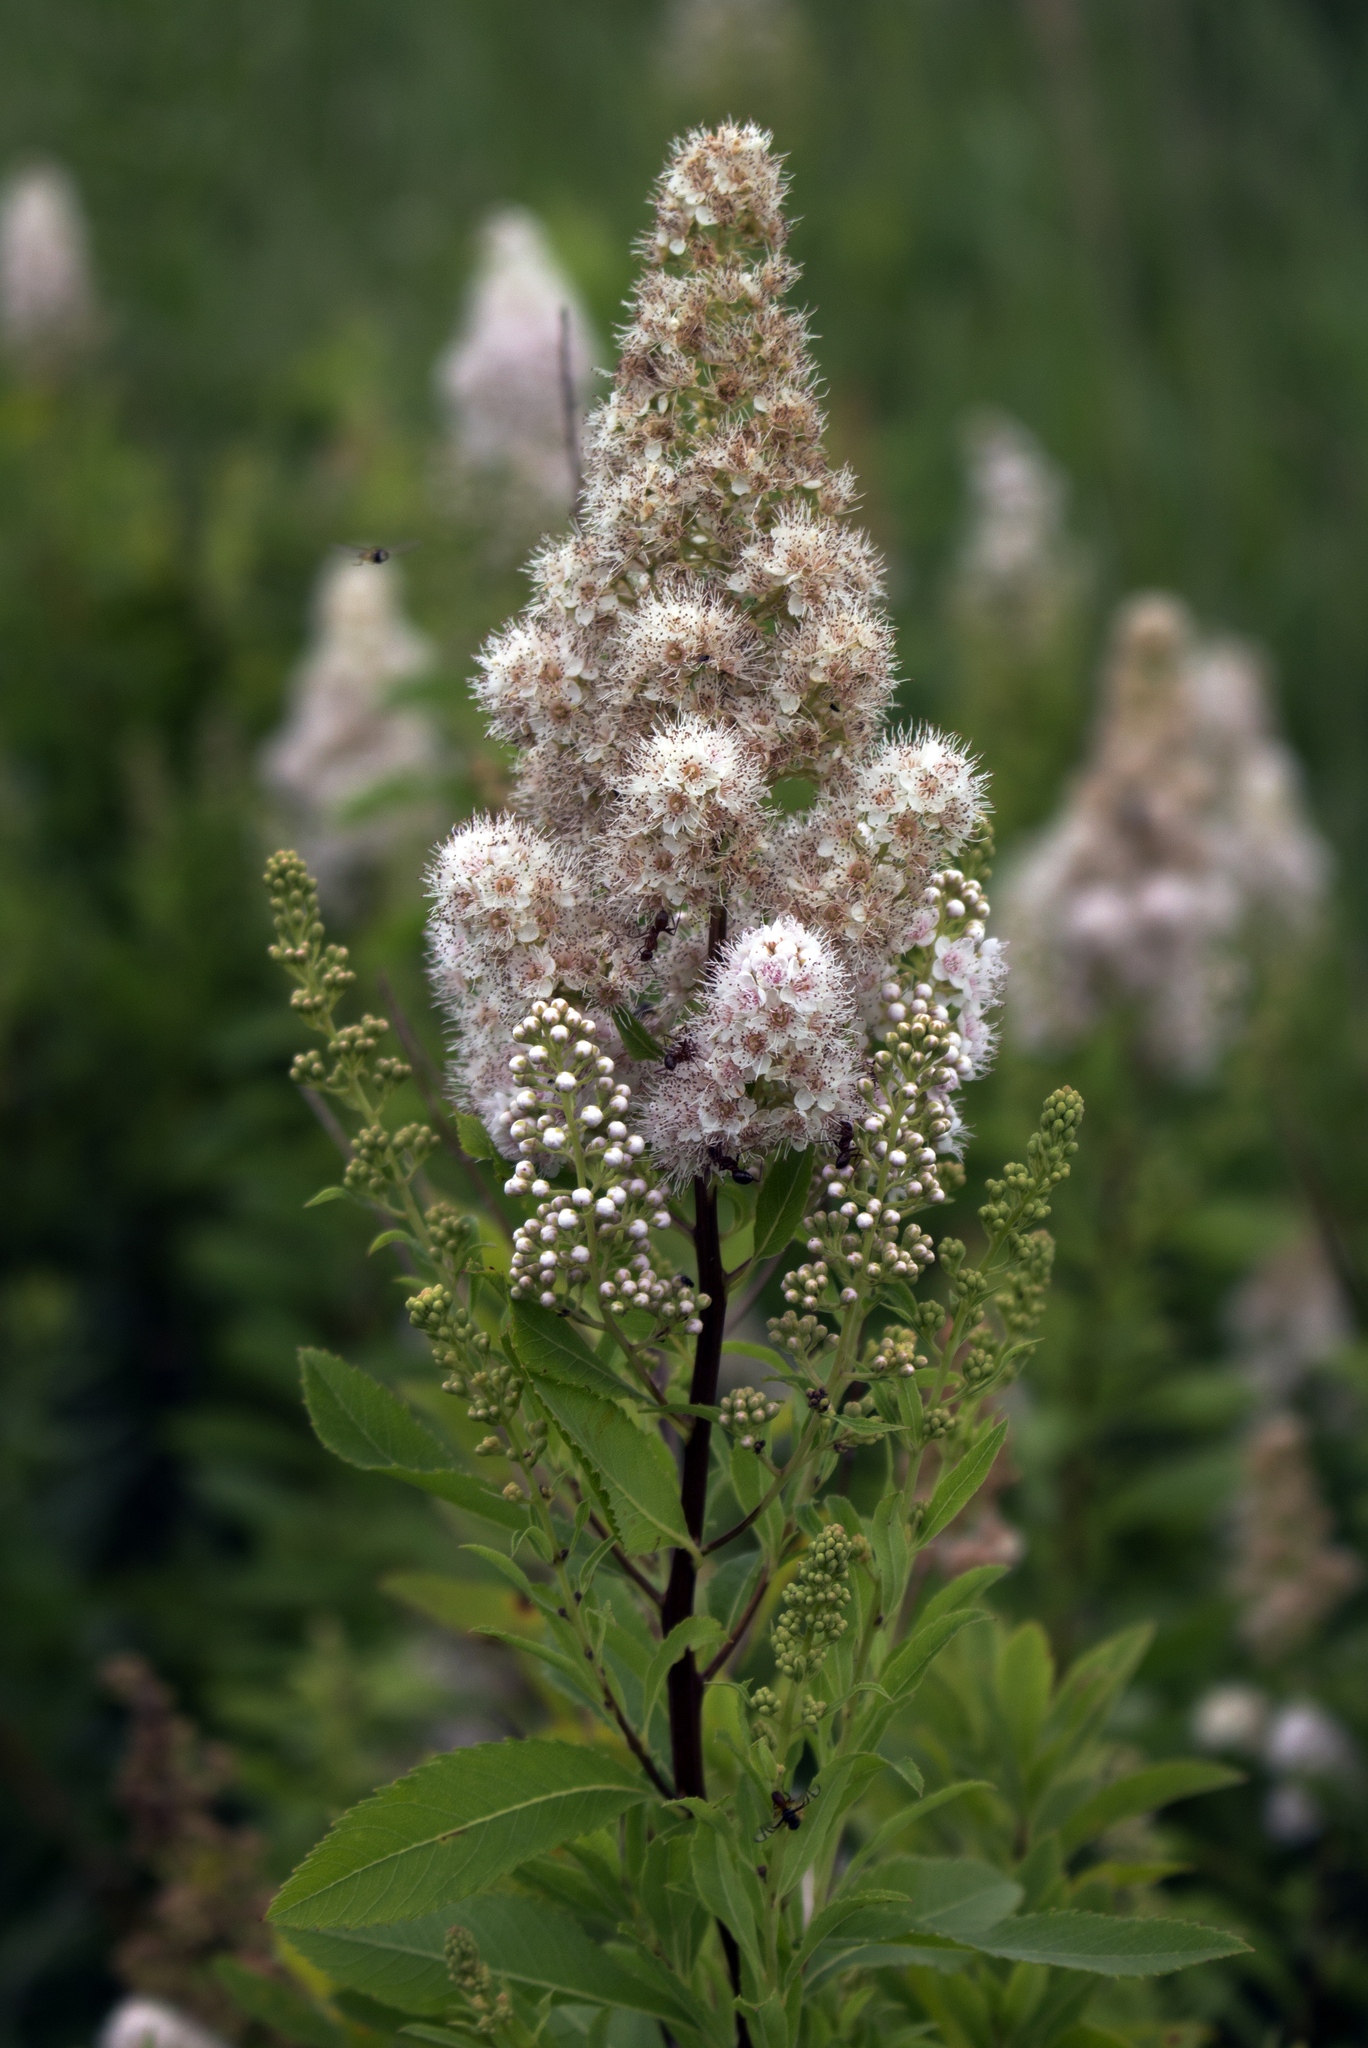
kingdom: Plantae
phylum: Tracheophyta
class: Magnoliopsida
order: Rosales
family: Rosaceae
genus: Spiraea
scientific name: Spiraea alba
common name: Pale bridewort
